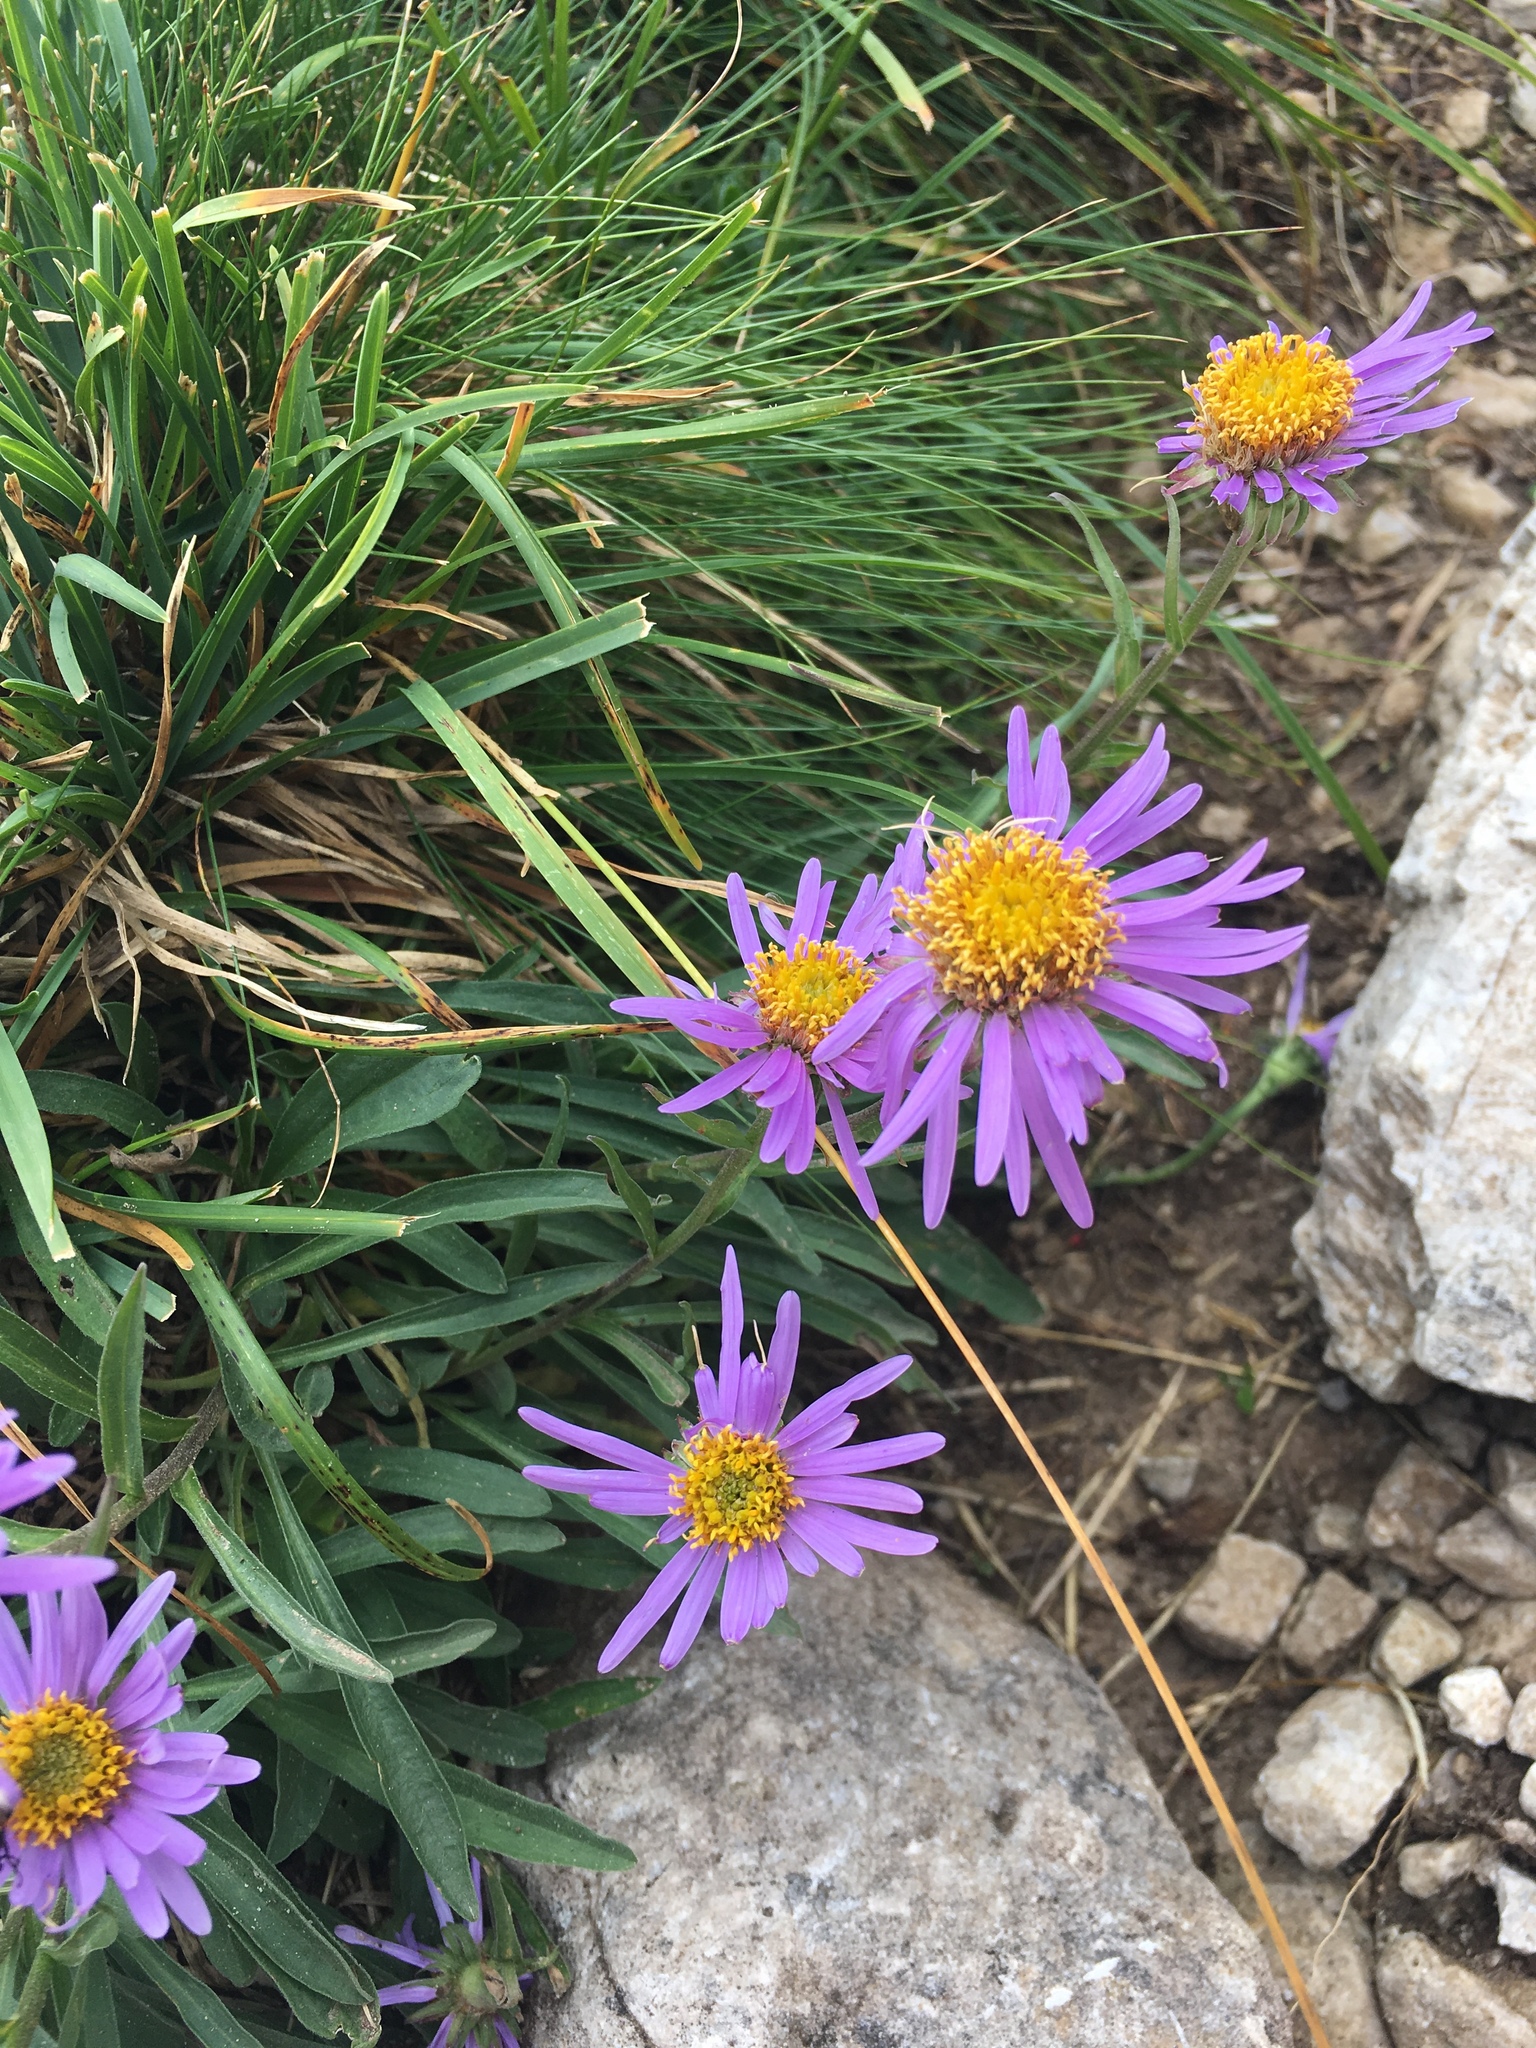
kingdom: Plantae
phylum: Tracheophyta
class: Magnoliopsida
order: Asterales
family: Asteraceae
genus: Aster
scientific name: Aster alpinus
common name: Alpine aster
